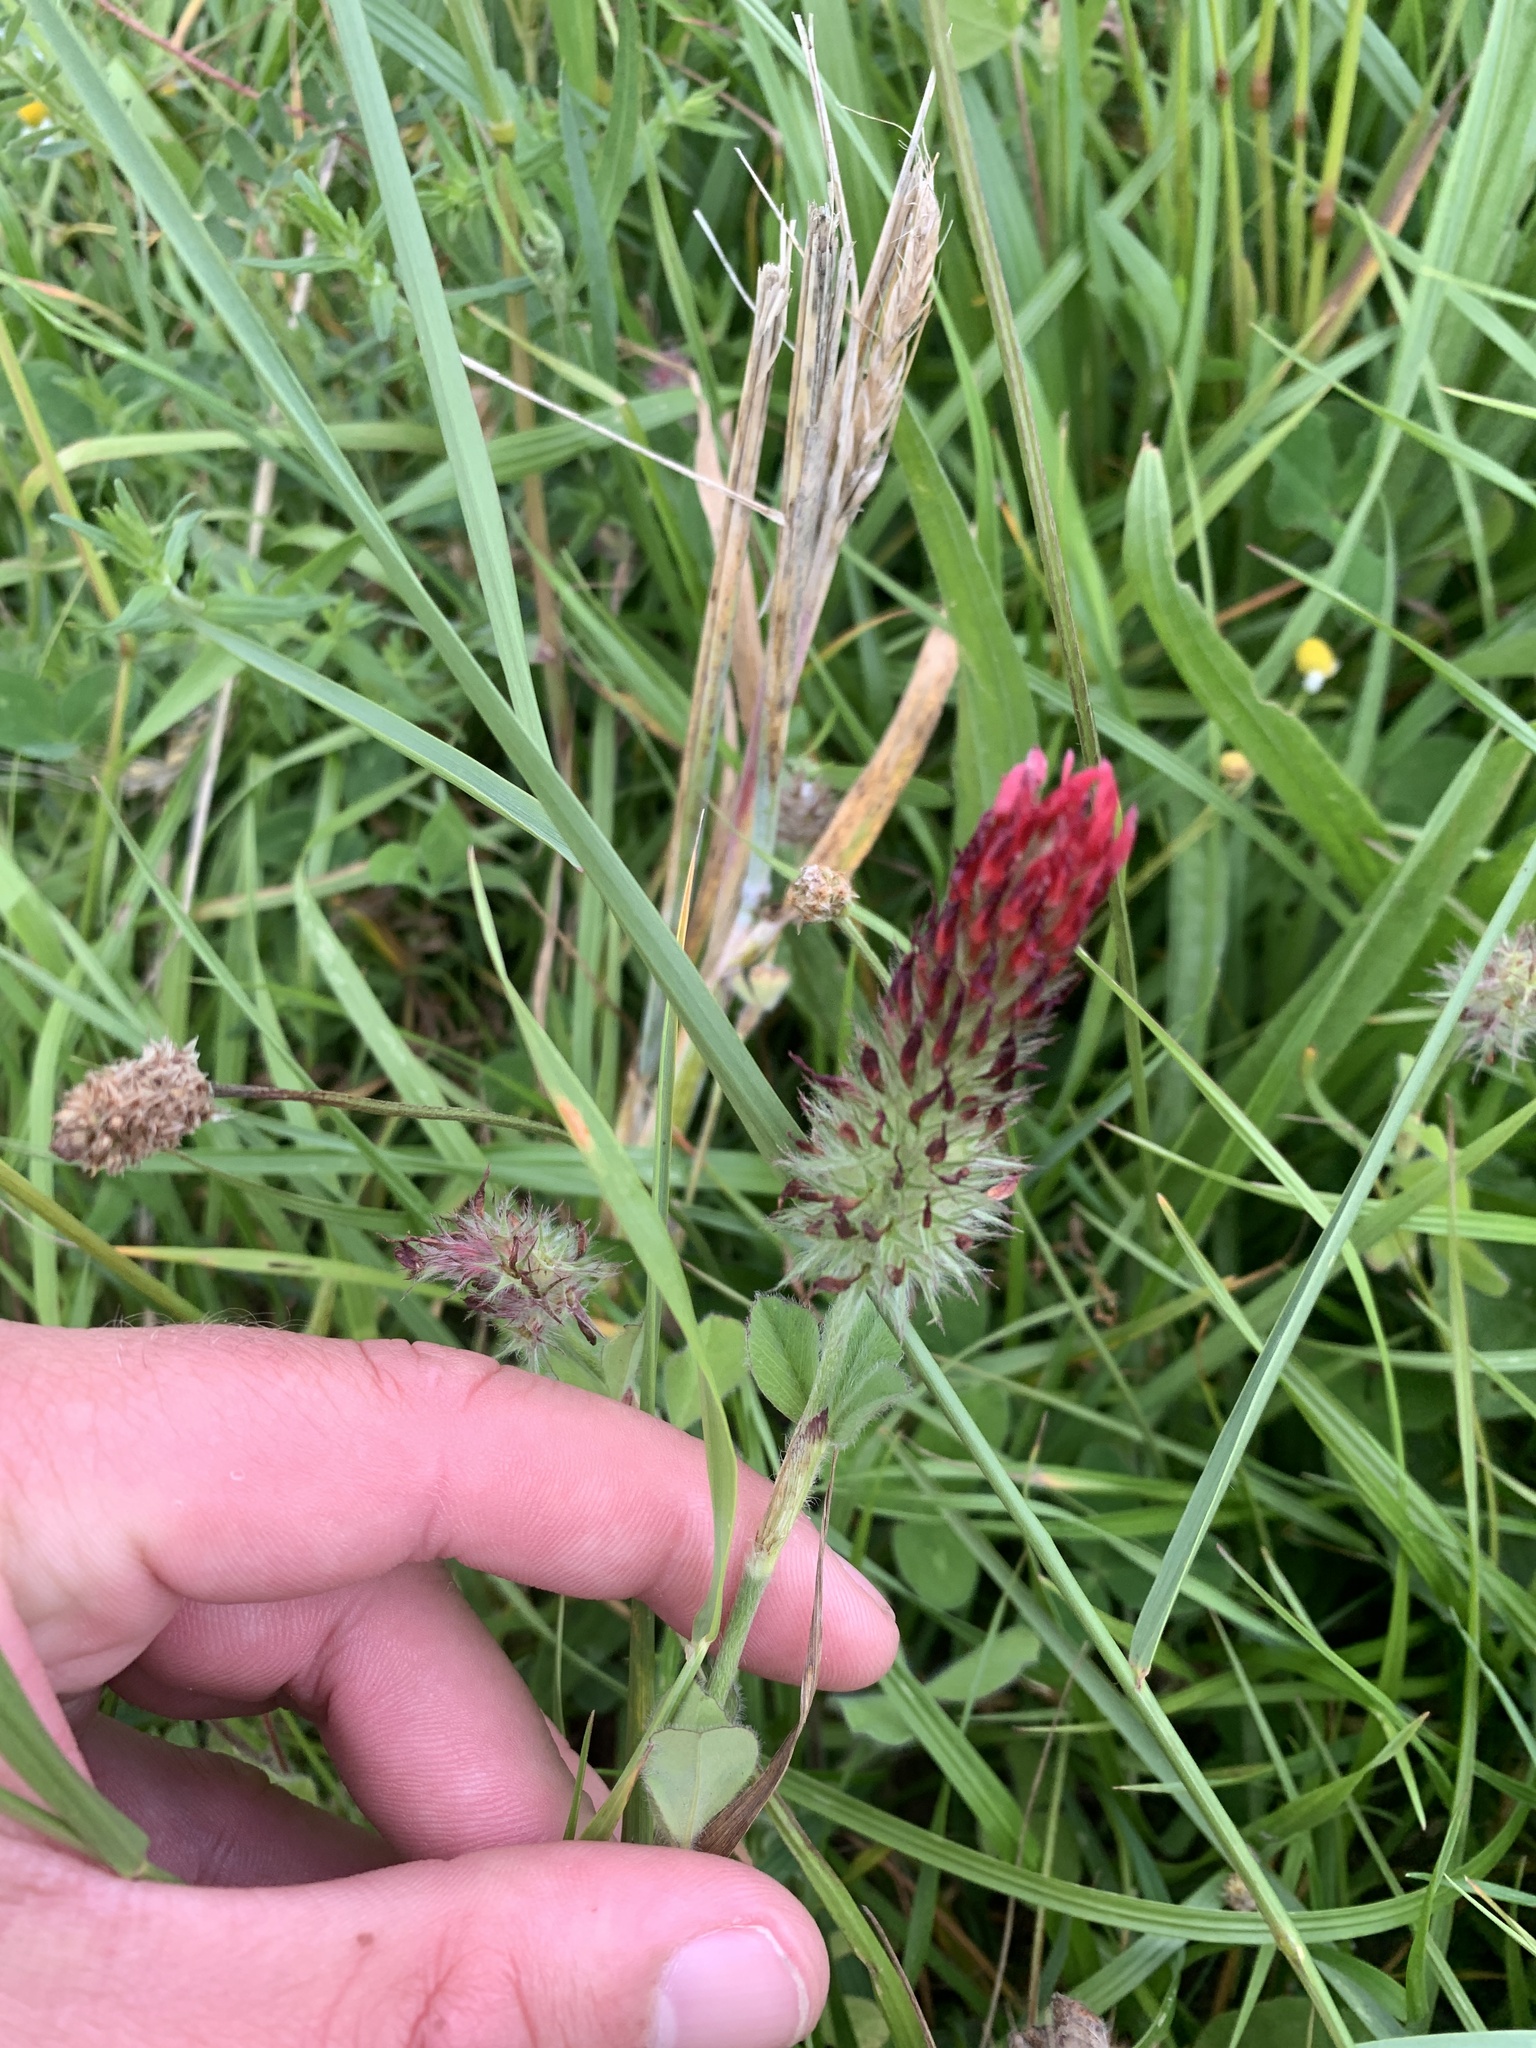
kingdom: Plantae
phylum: Tracheophyta
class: Magnoliopsida
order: Fabales
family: Fabaceae
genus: Trifolium
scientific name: Trifolium incarnatum
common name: Crimson clover
